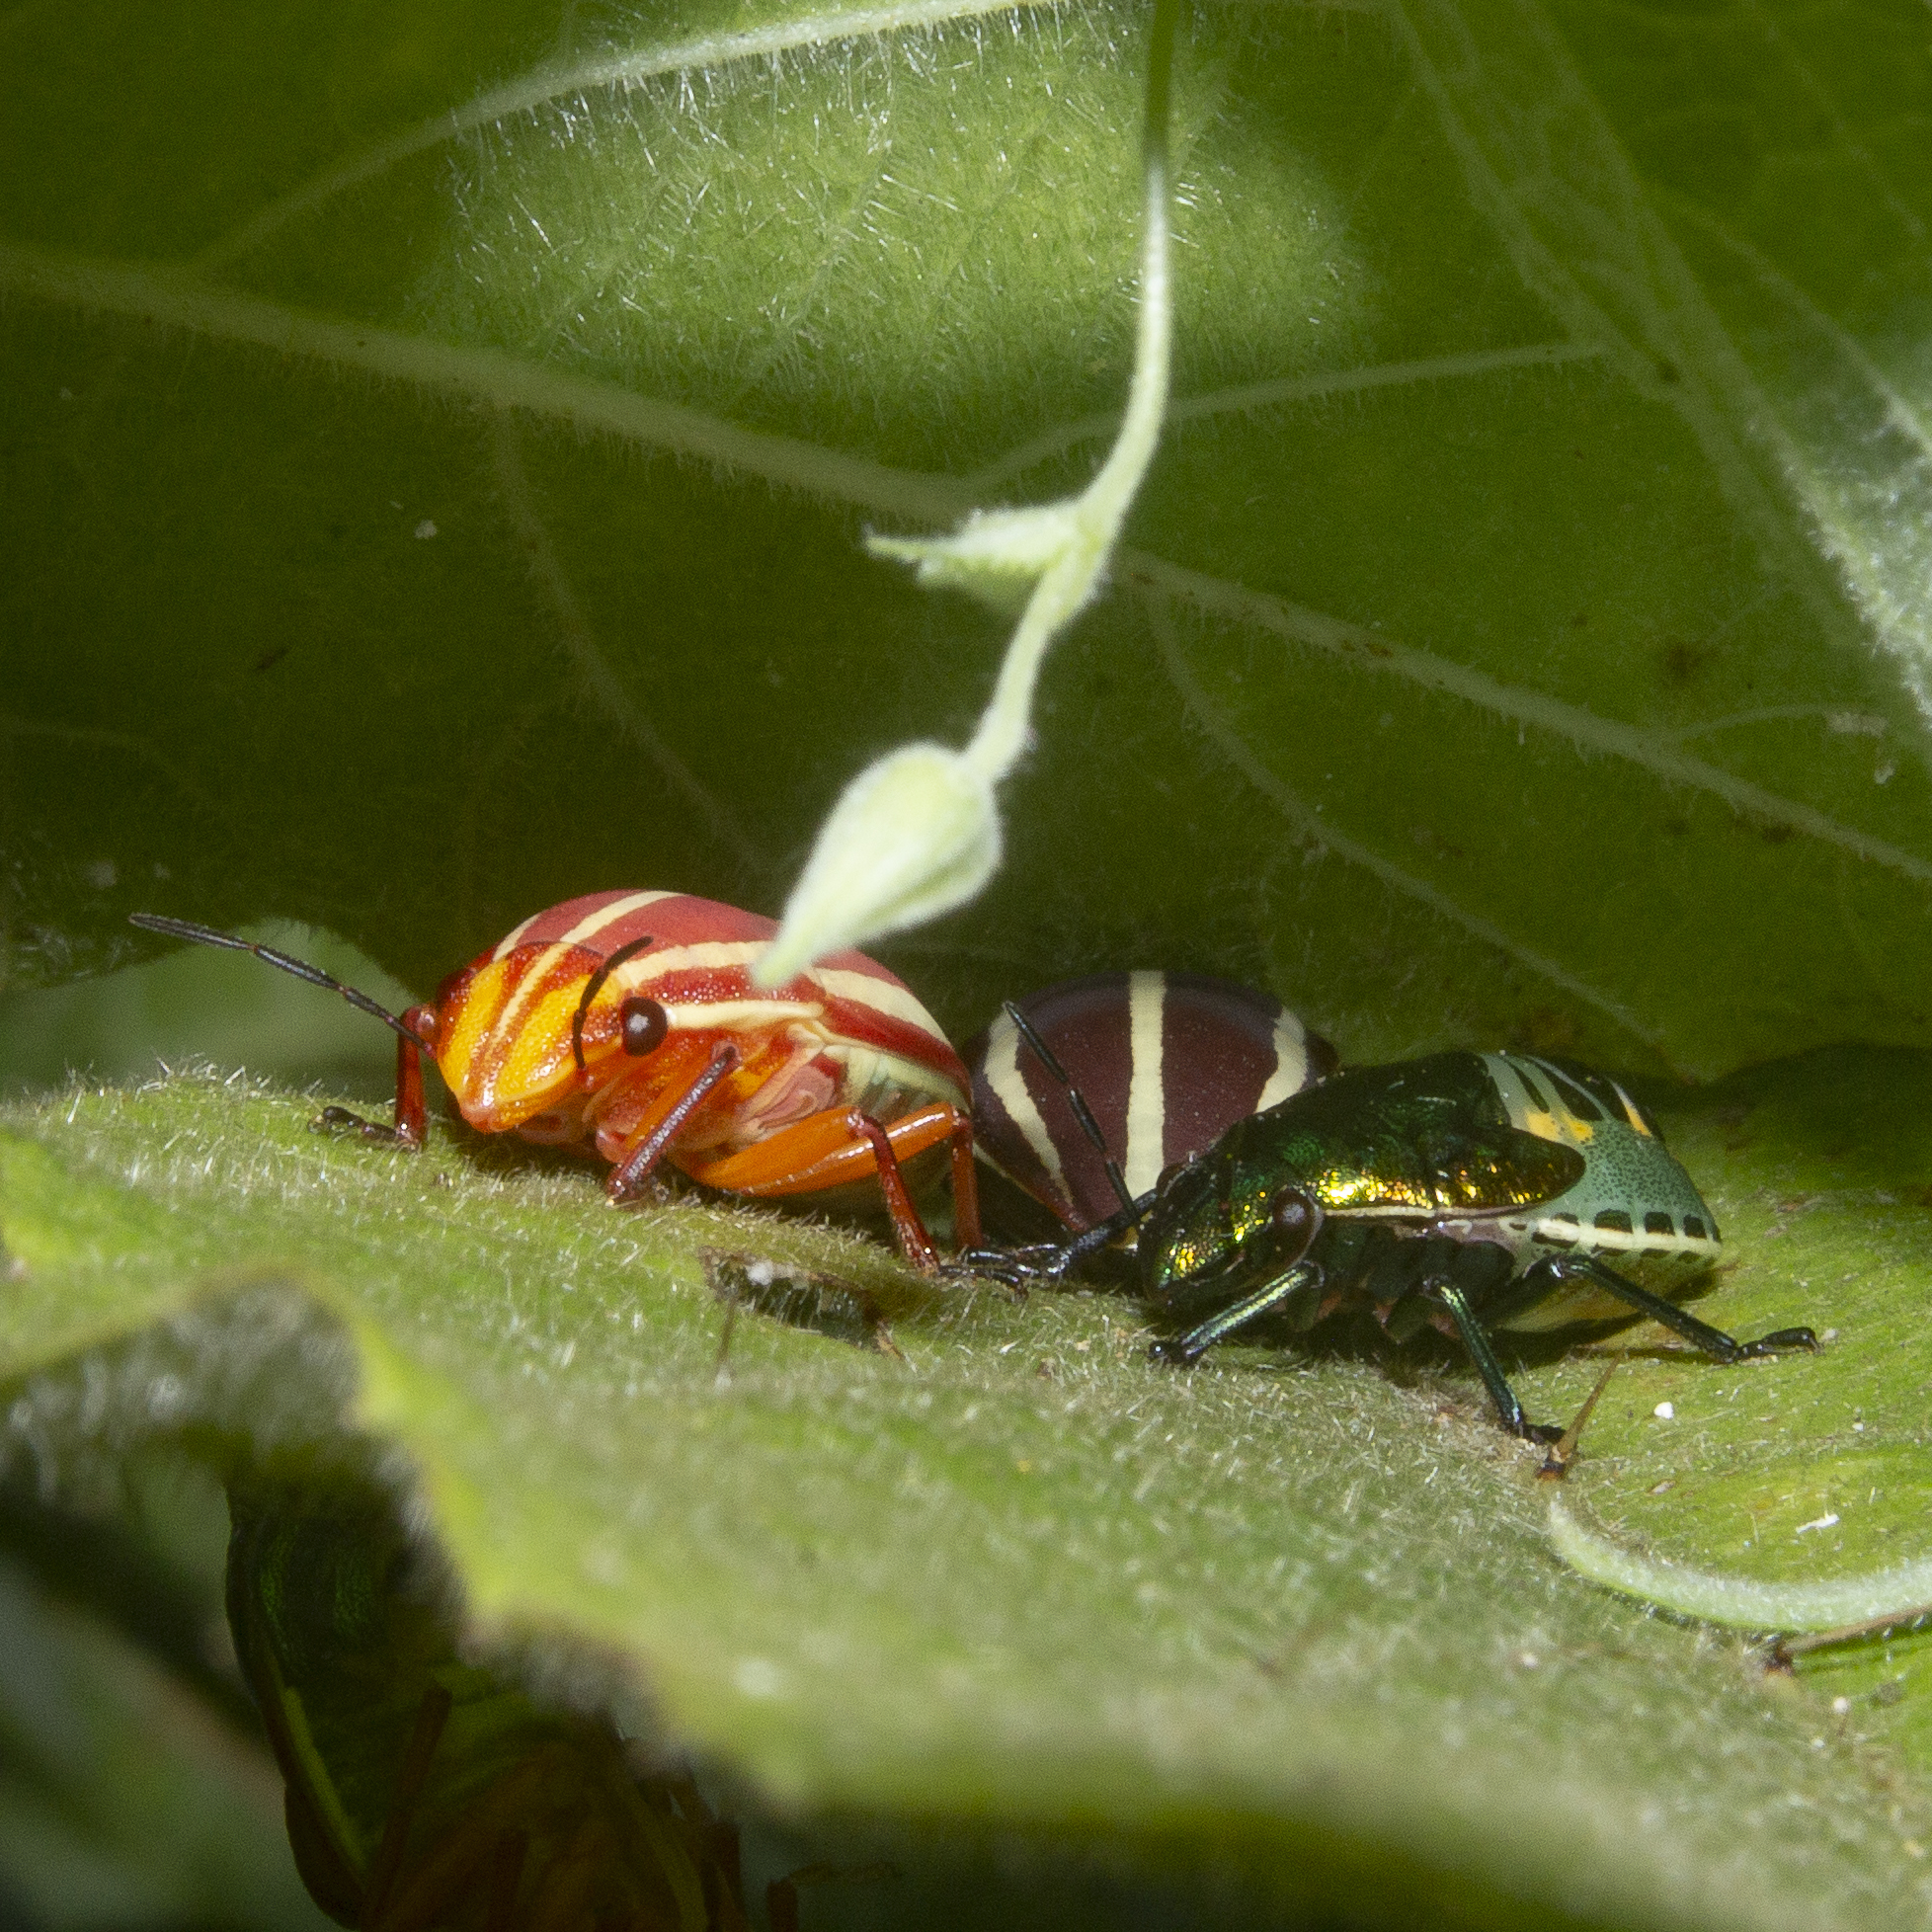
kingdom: Animalia
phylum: Arthropoda
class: Insecta
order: Hemiptera
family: Scutelleridae
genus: Agonosoma
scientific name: Agonosoma trilineata
